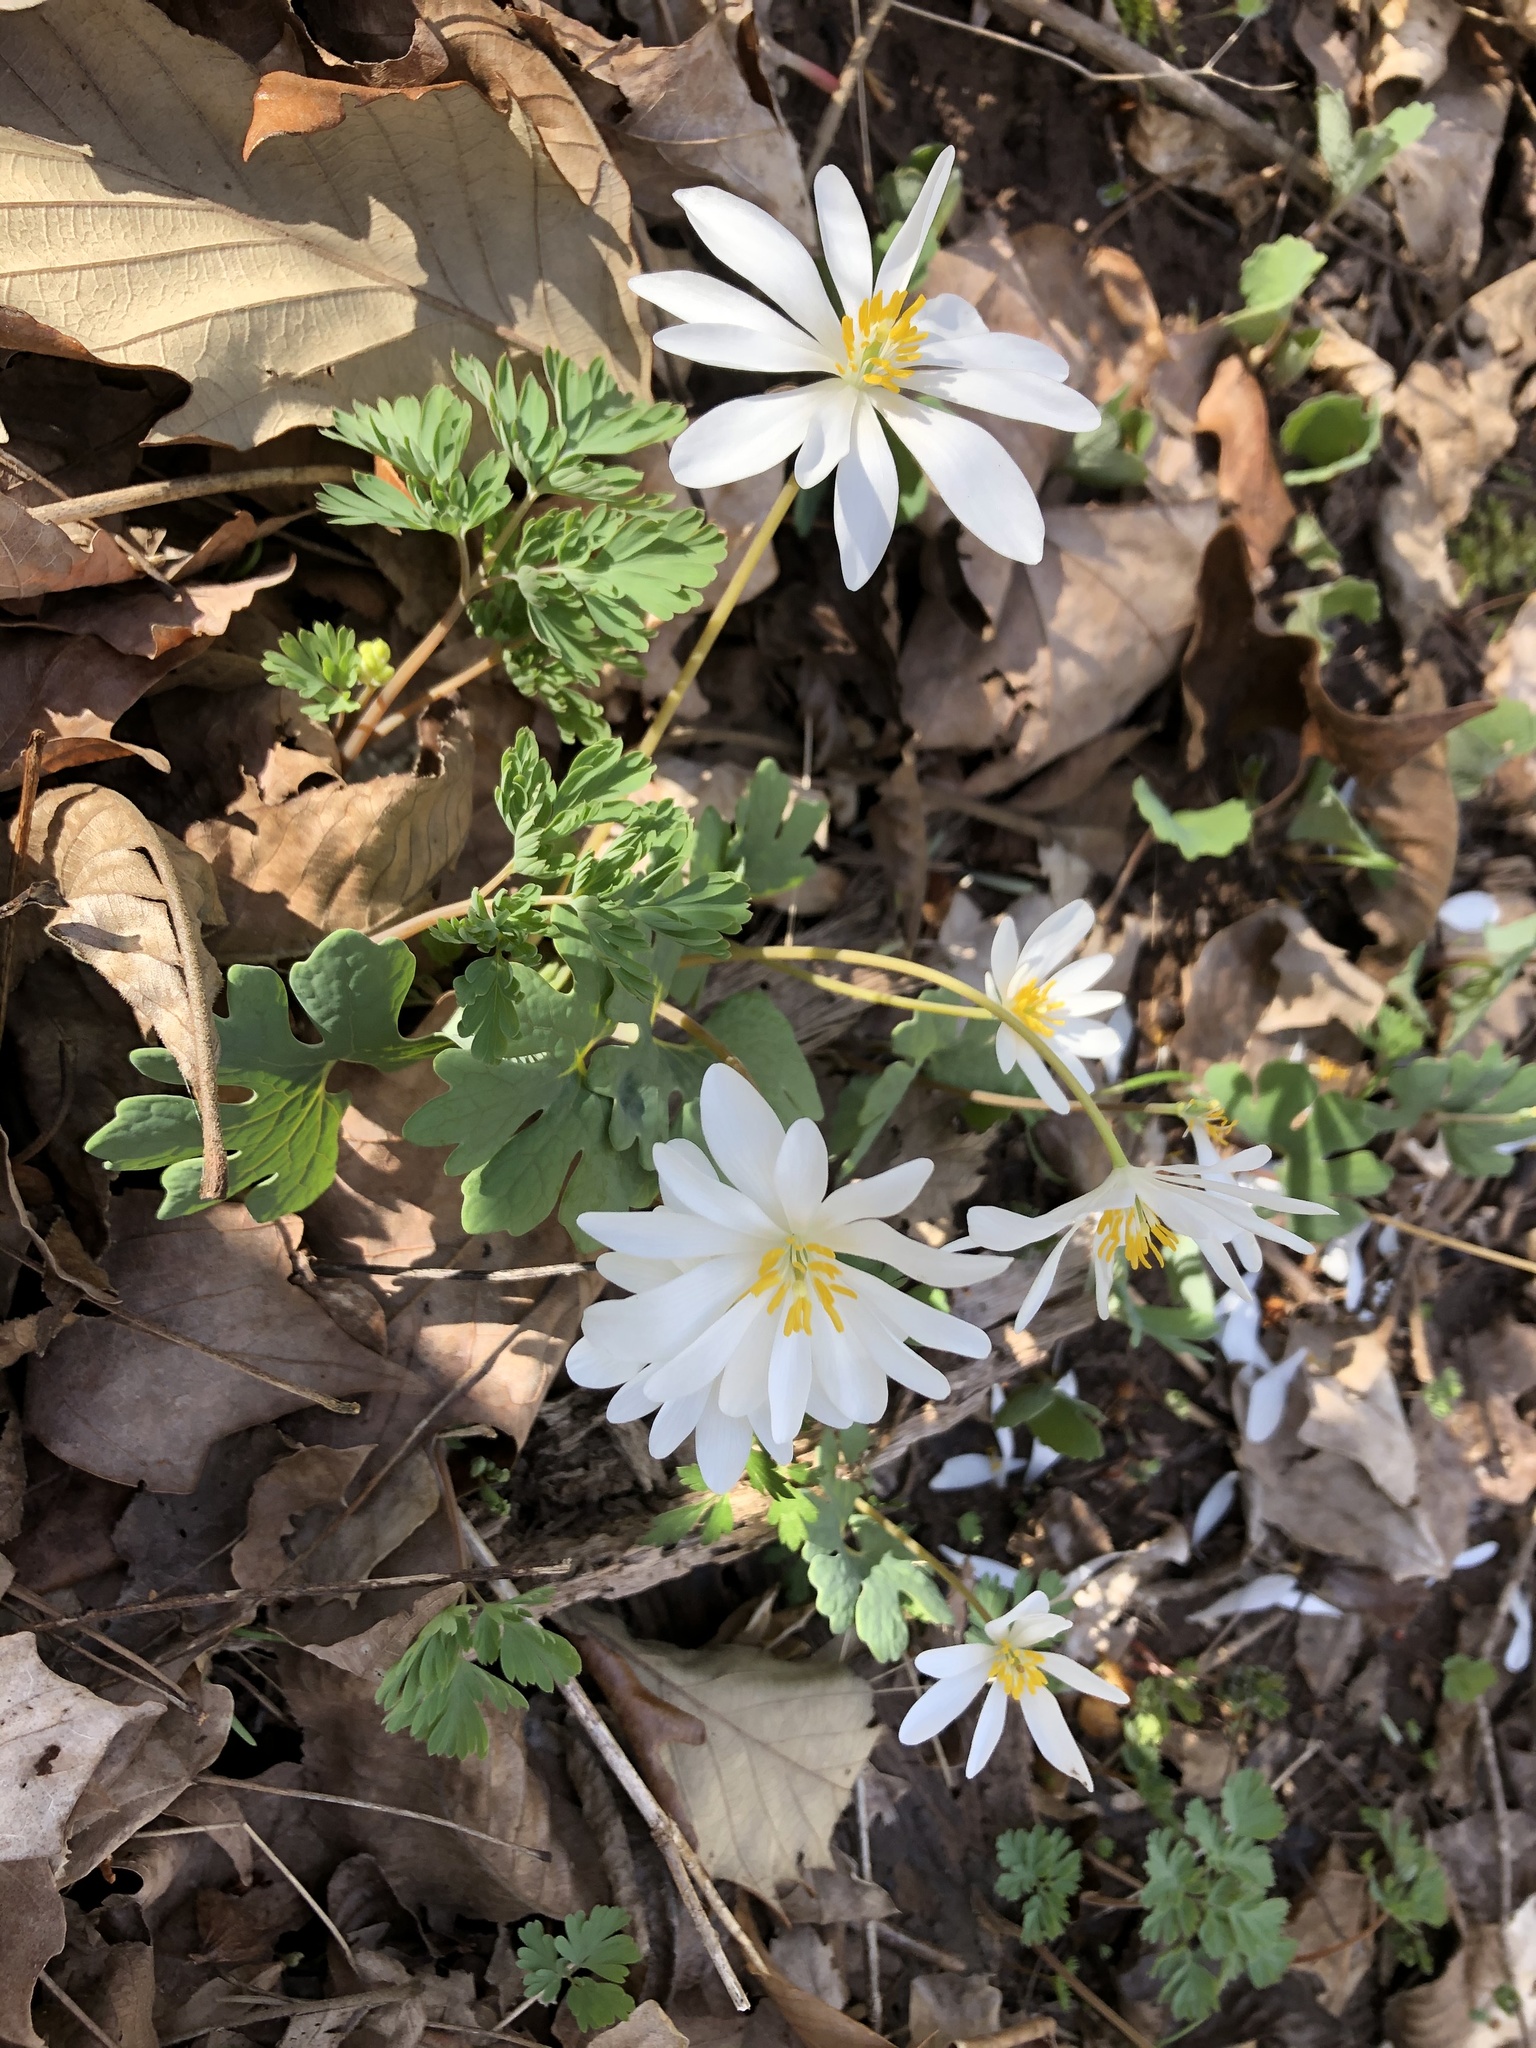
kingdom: Plantae
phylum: Tracheophyta
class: Magnoliopsida
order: Ranunculales
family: Papaveraceae
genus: Sanguinaria
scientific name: Sanguinaria canadensis
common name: Bloodroot
